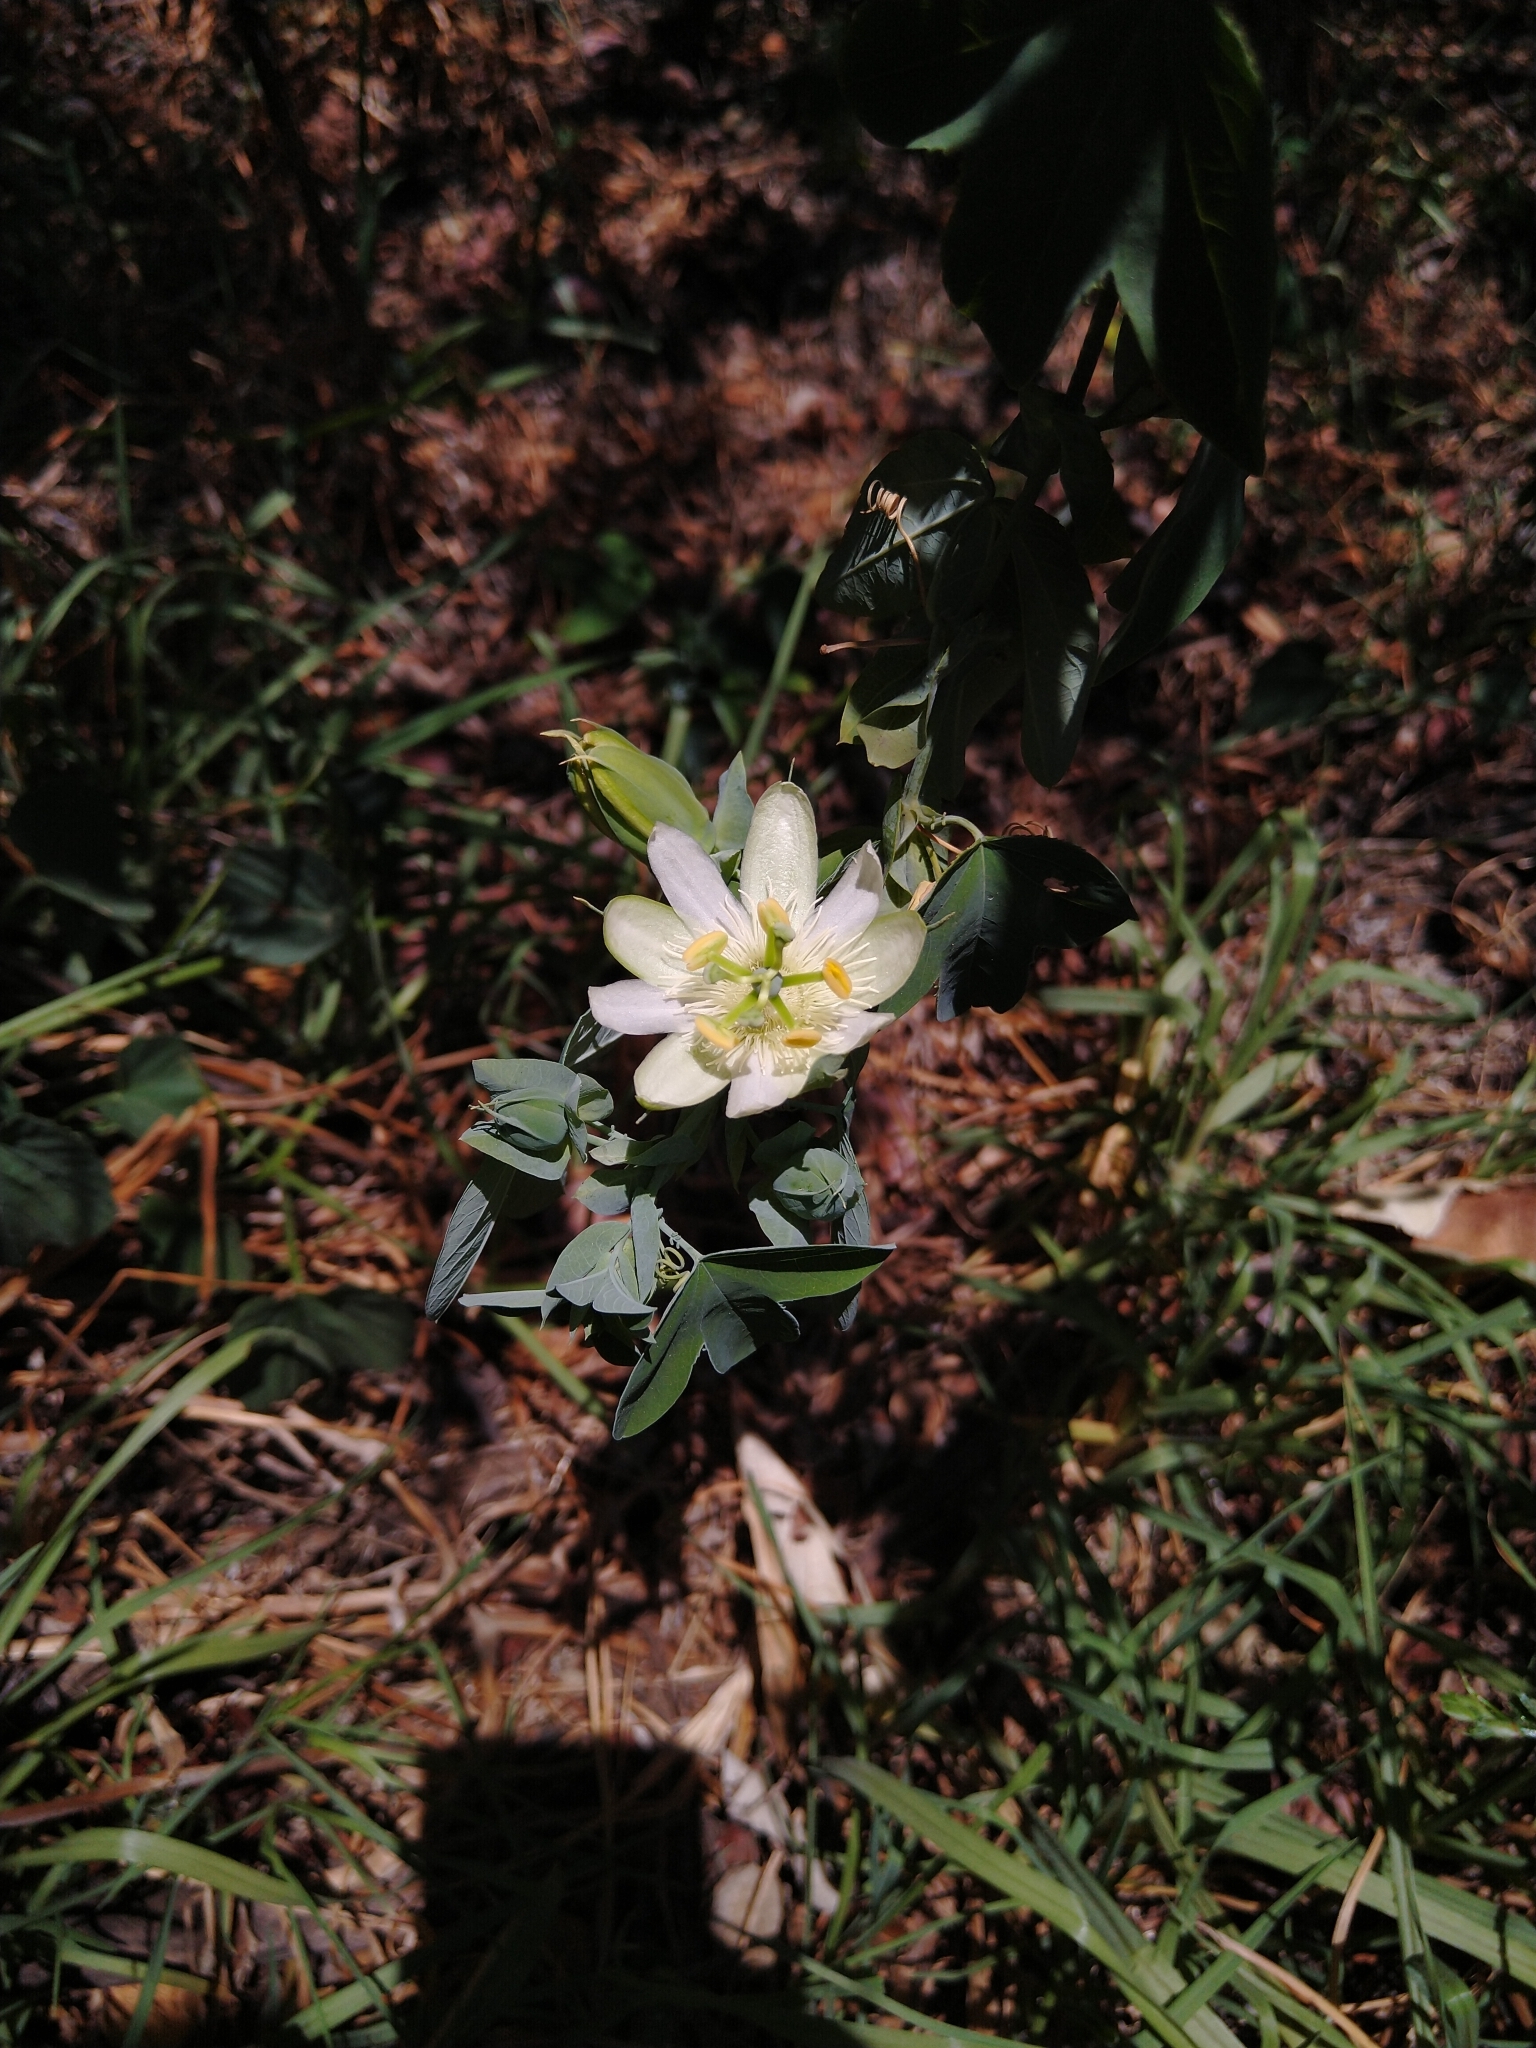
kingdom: Plantae
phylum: Tracheophyta
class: Magnoliopsida
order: Malpighiales
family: Passifloraceae
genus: Passiflora
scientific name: Passiflora subpeltata
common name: White passionflower
